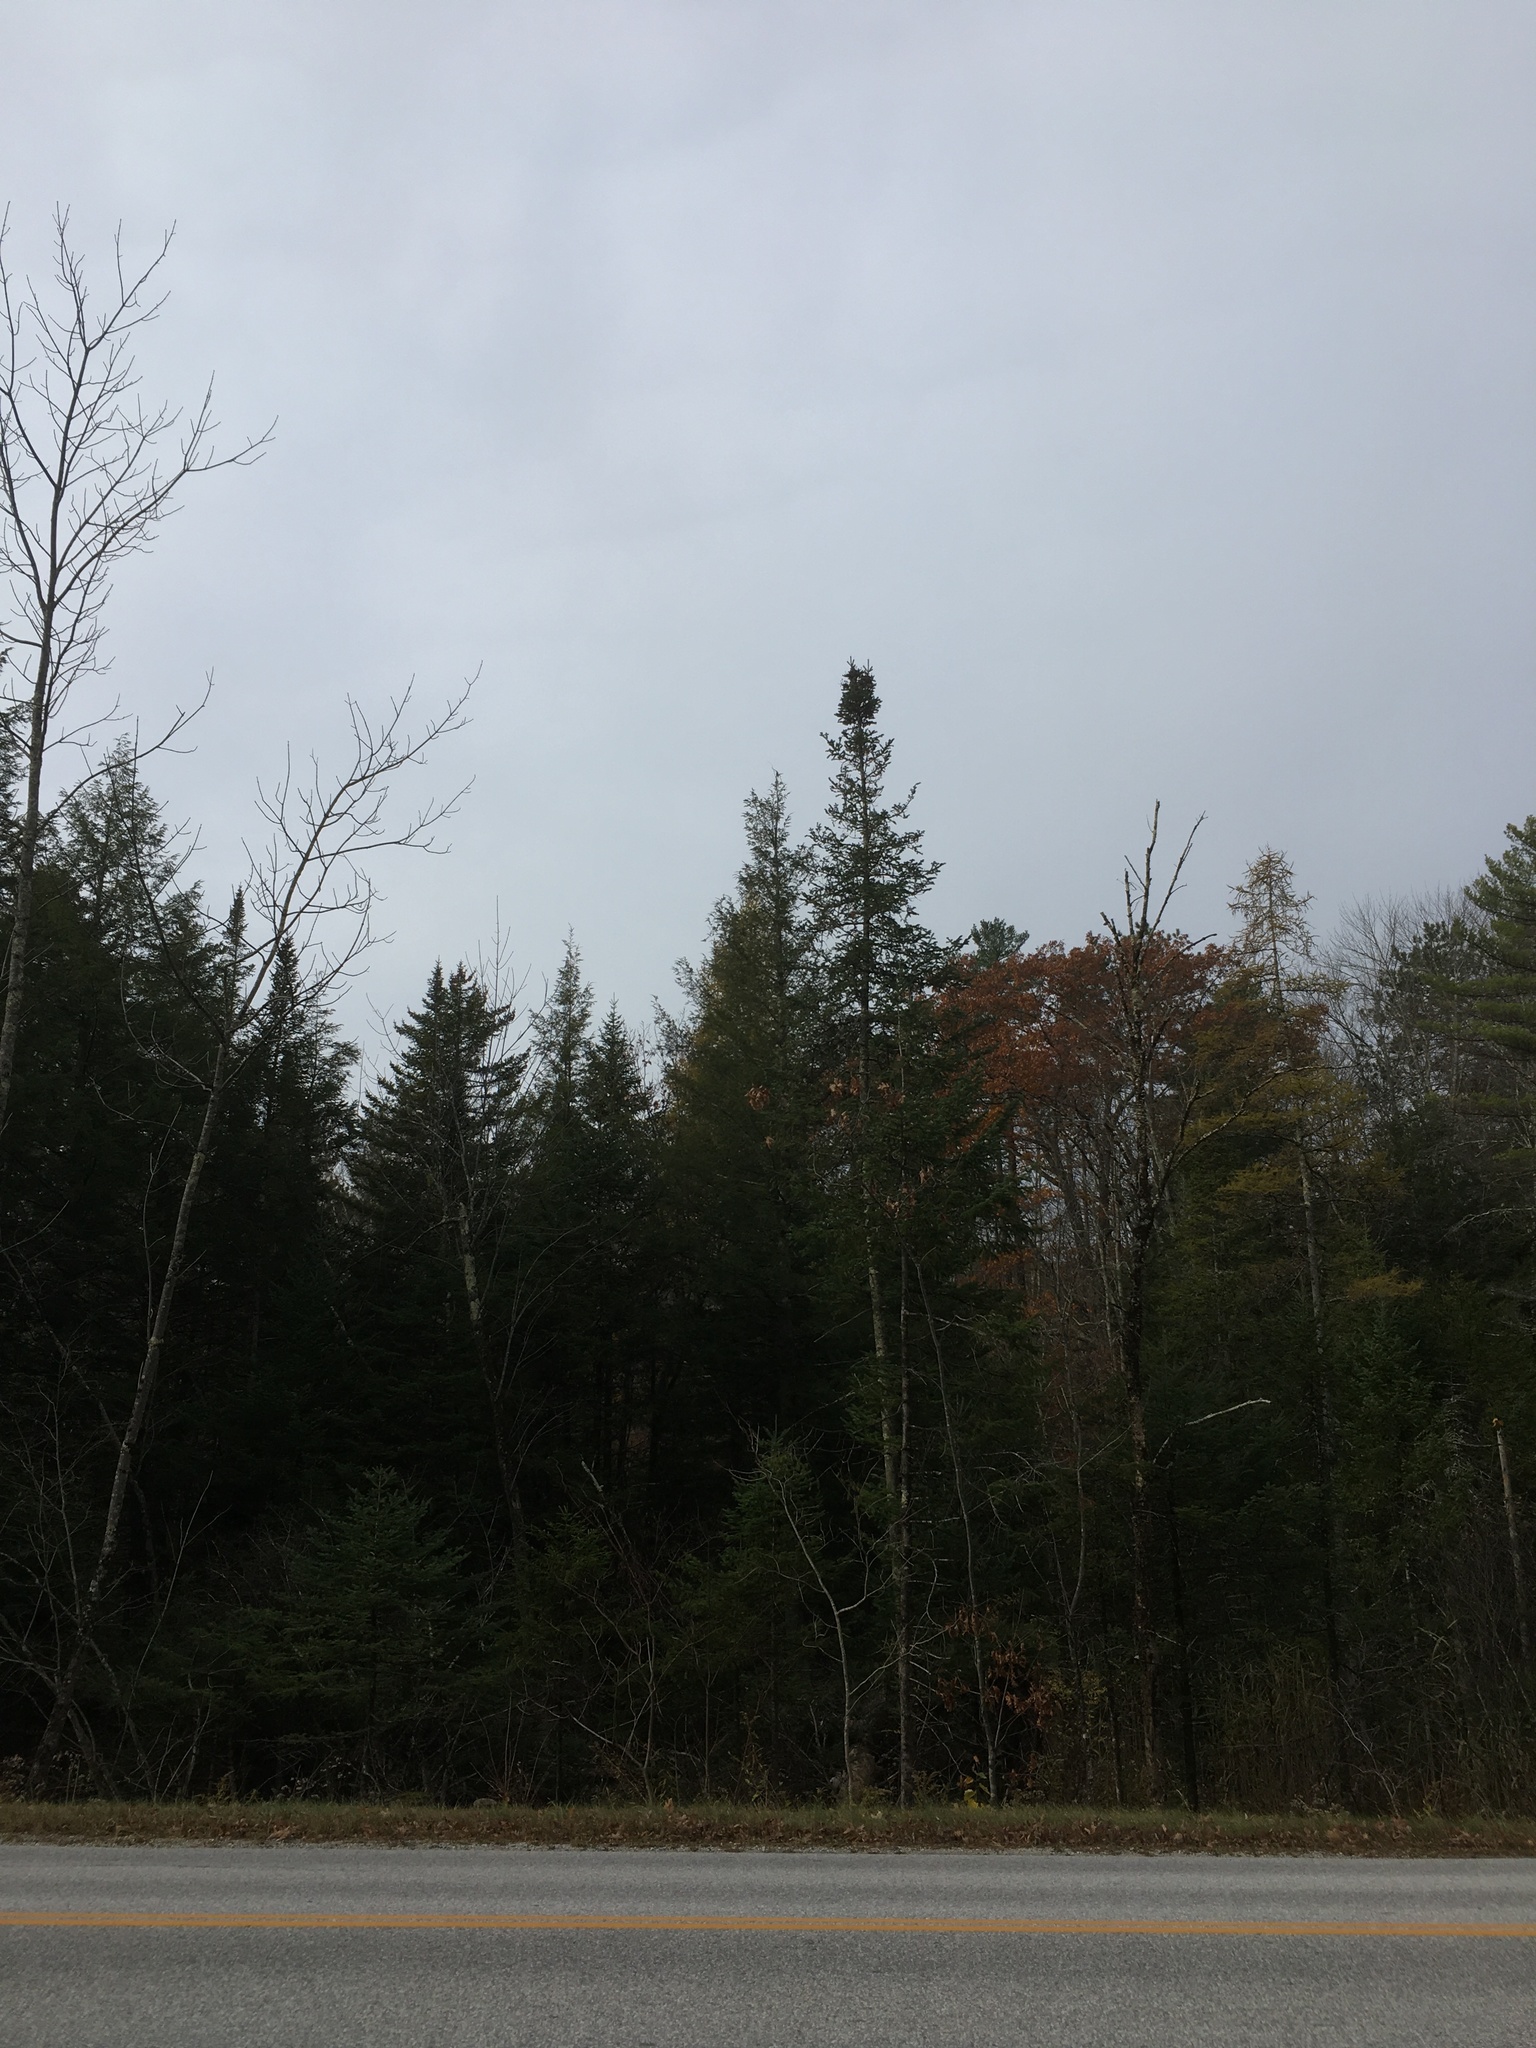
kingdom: Plantae
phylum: Tracheophyta
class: Pinopsida
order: Pinales
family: Pinaceae
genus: Abies
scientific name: Abies balsamea
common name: Balsam fir
